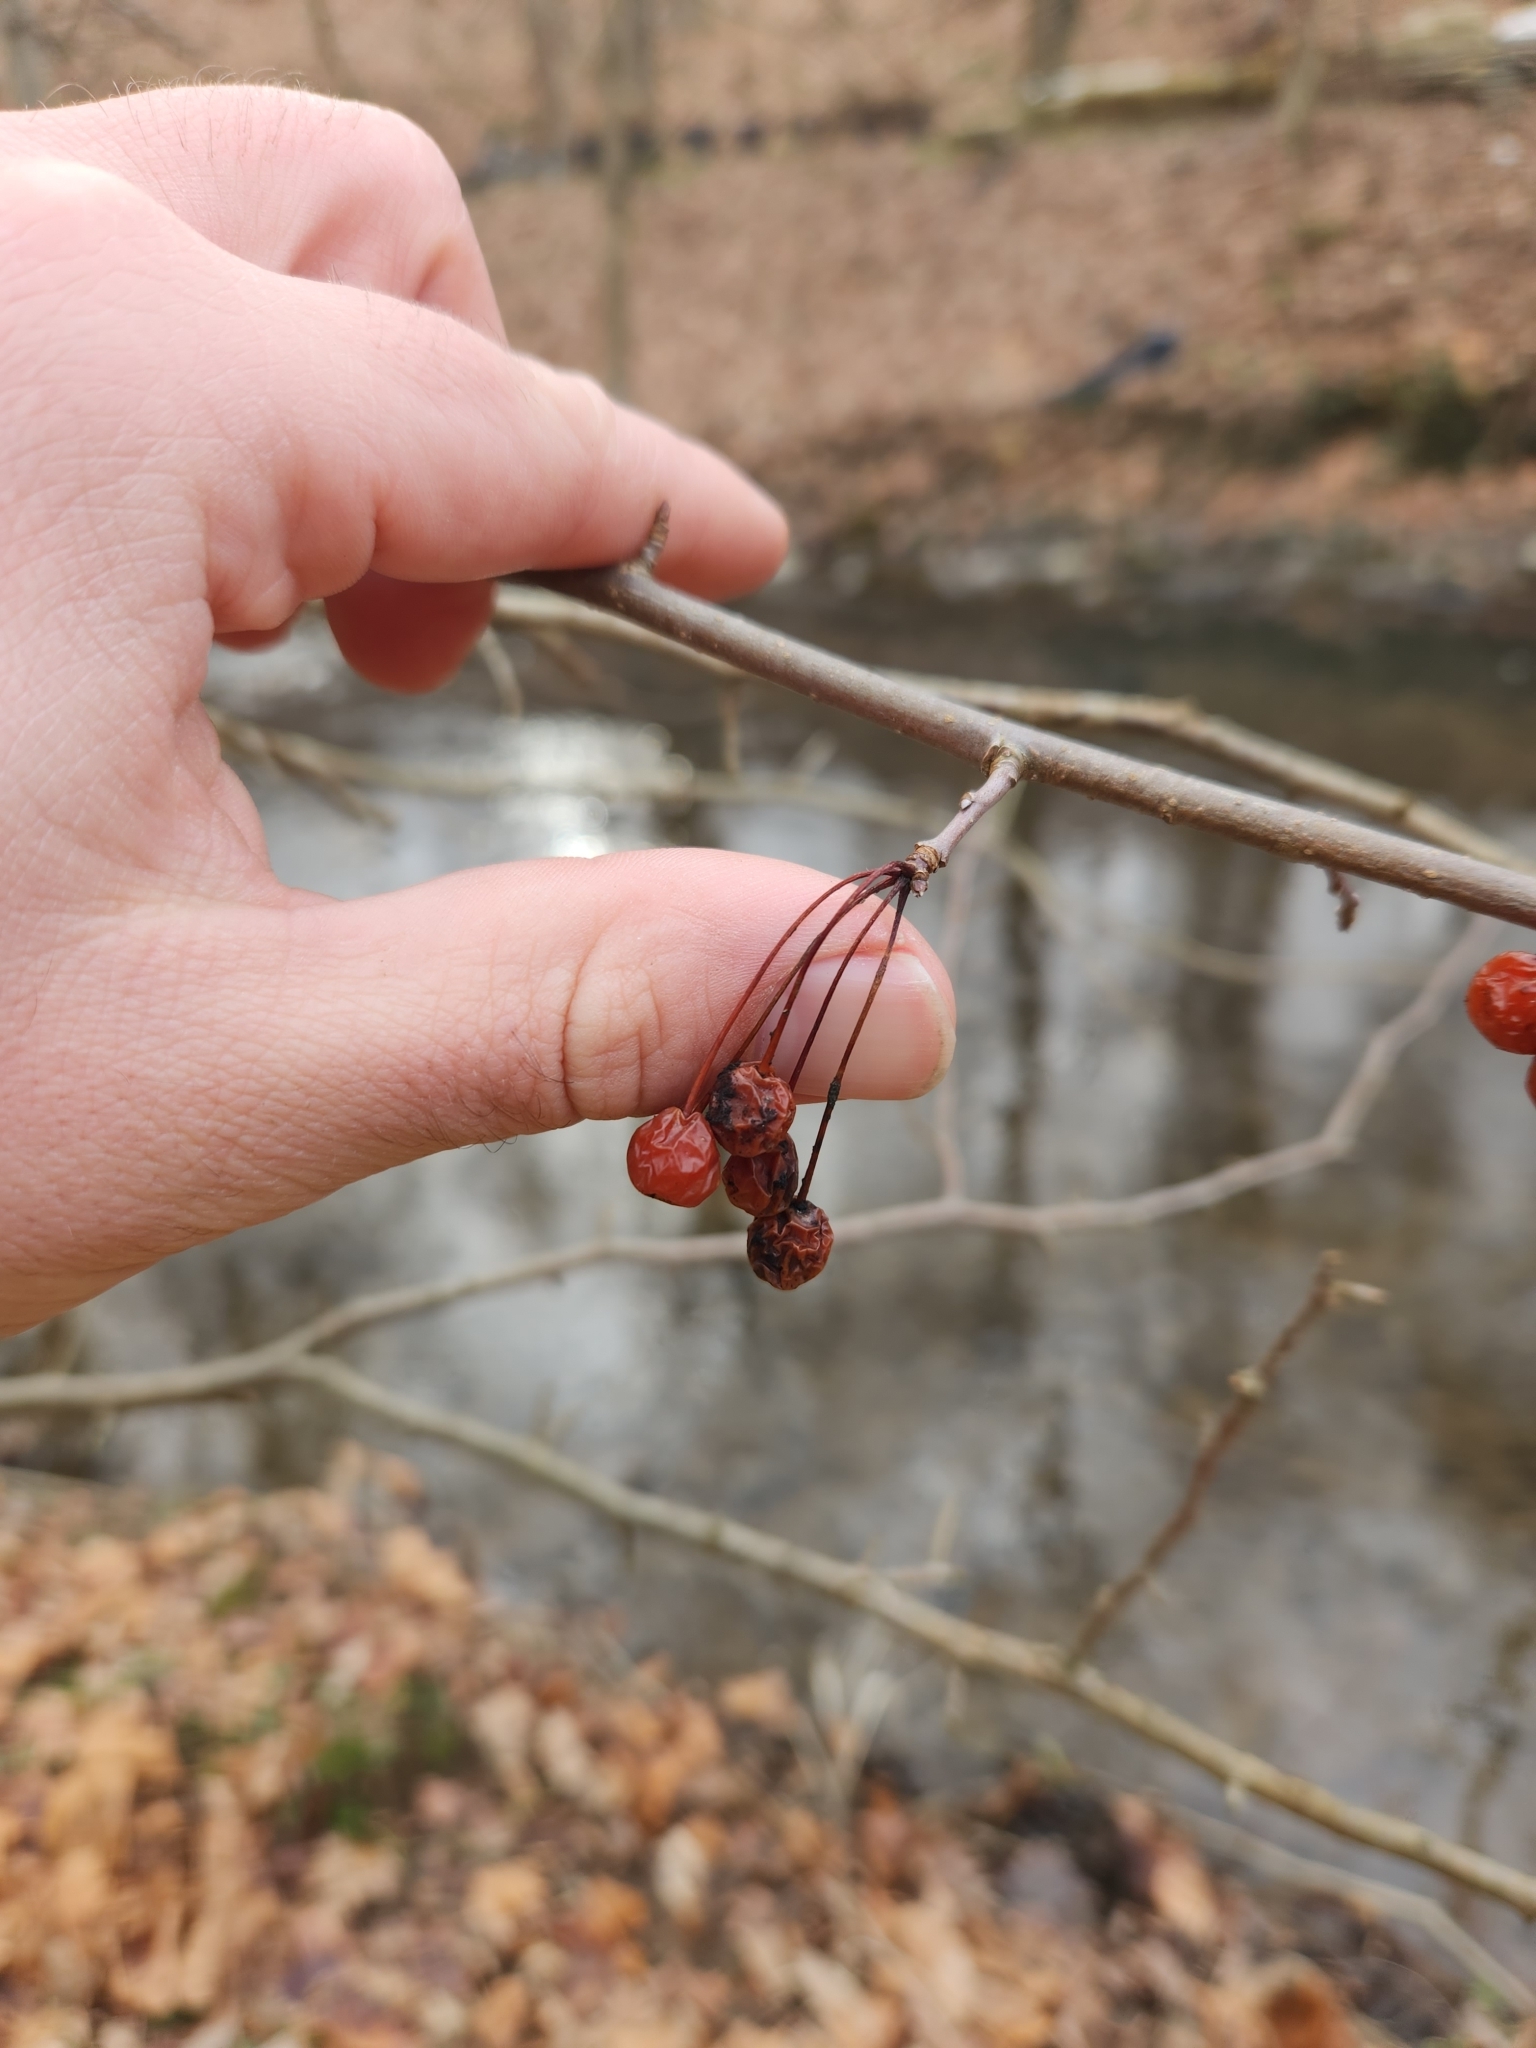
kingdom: Plantae
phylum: Tracheophyta
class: Magnoliopsida
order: Rosales
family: Rosaceae
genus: Malus
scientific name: Malus baccata
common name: Siberian crab
